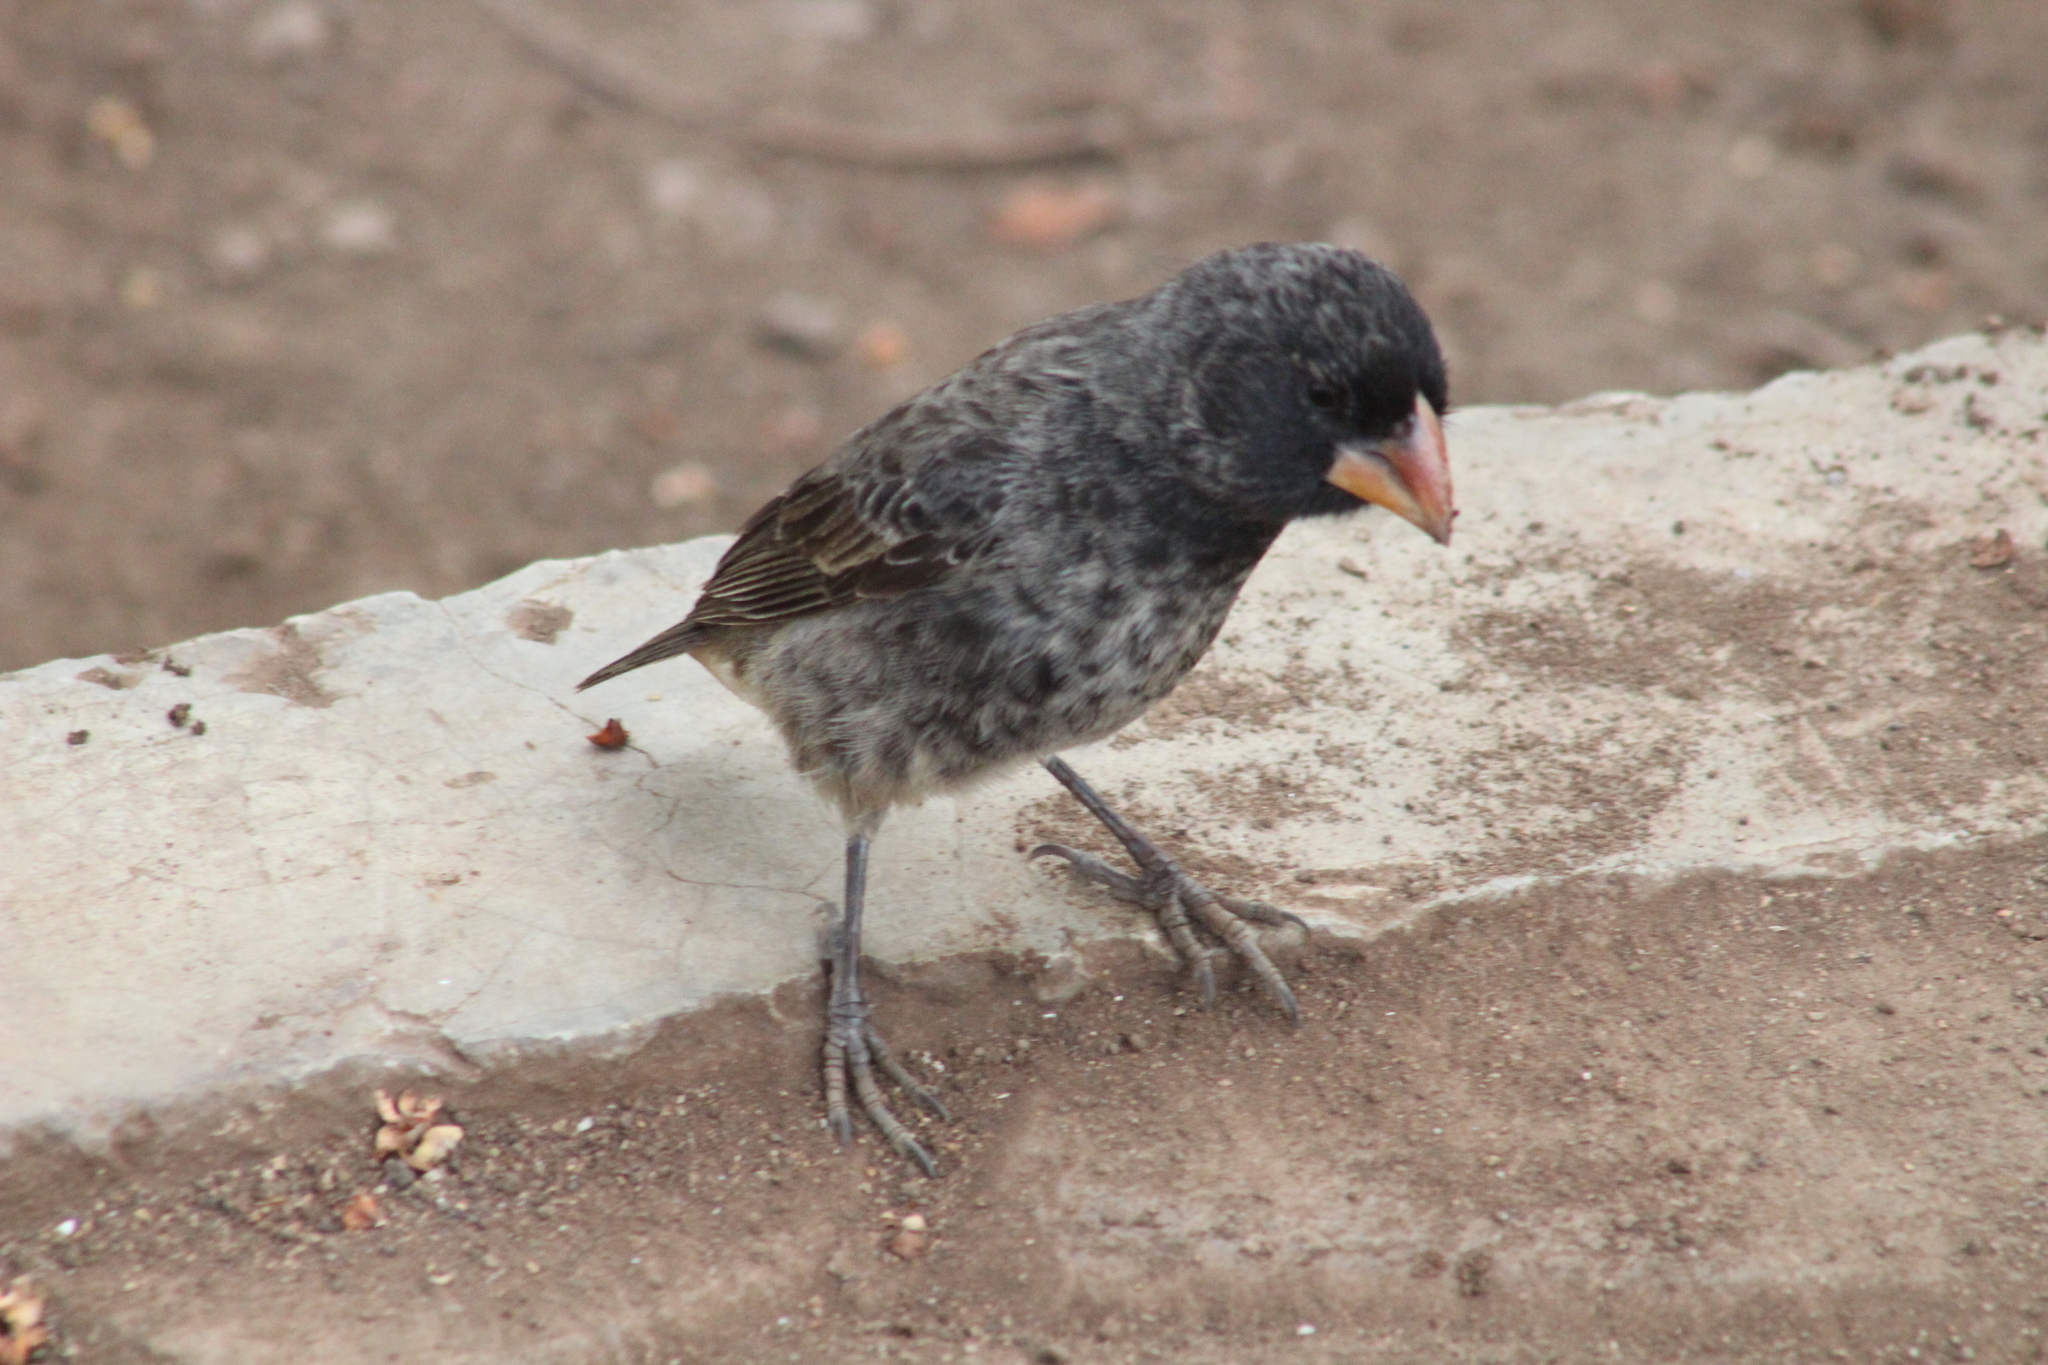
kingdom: Animalia
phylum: Chordata
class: Aves
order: Passeriformes
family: Thraupidae
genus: Geospiza
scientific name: Geospiza fortis
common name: Medium ground finch
